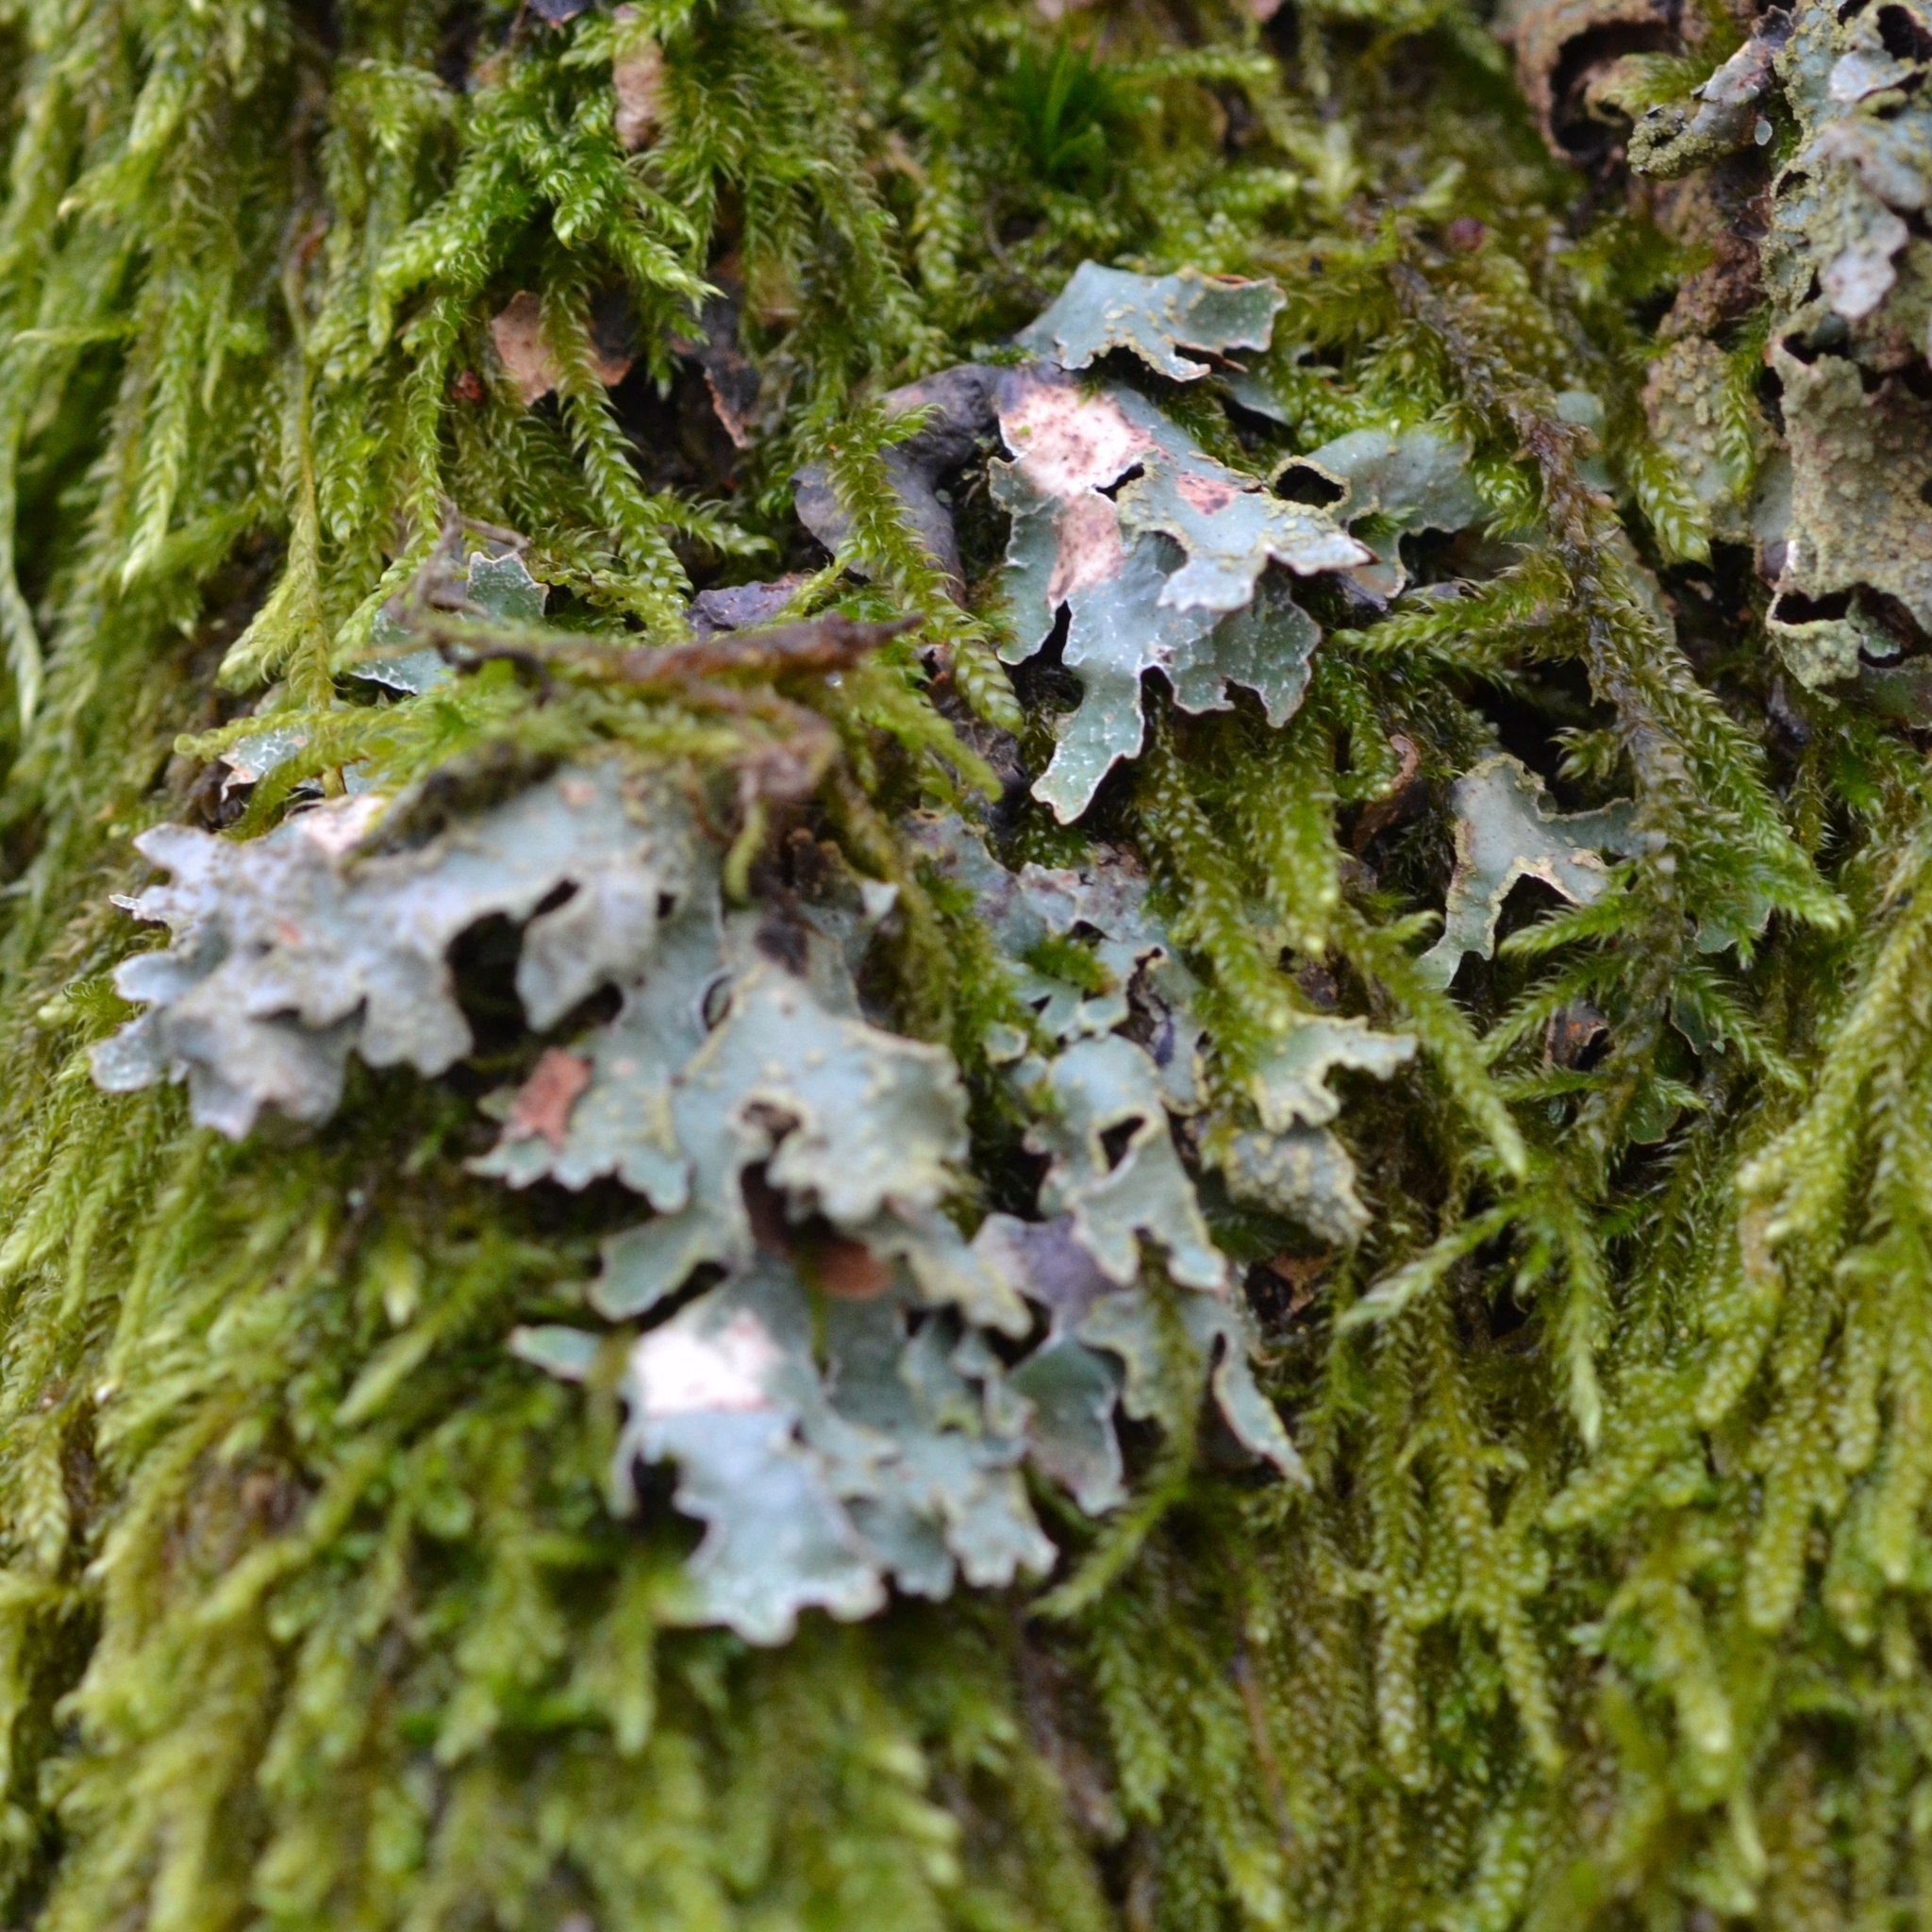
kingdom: Fungi
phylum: Ascomycota
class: Lecanoromycetes
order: Lecanorales
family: Parmeliaceae
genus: Parmelia
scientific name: Parmelia sulcata
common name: Netted shield lichen
